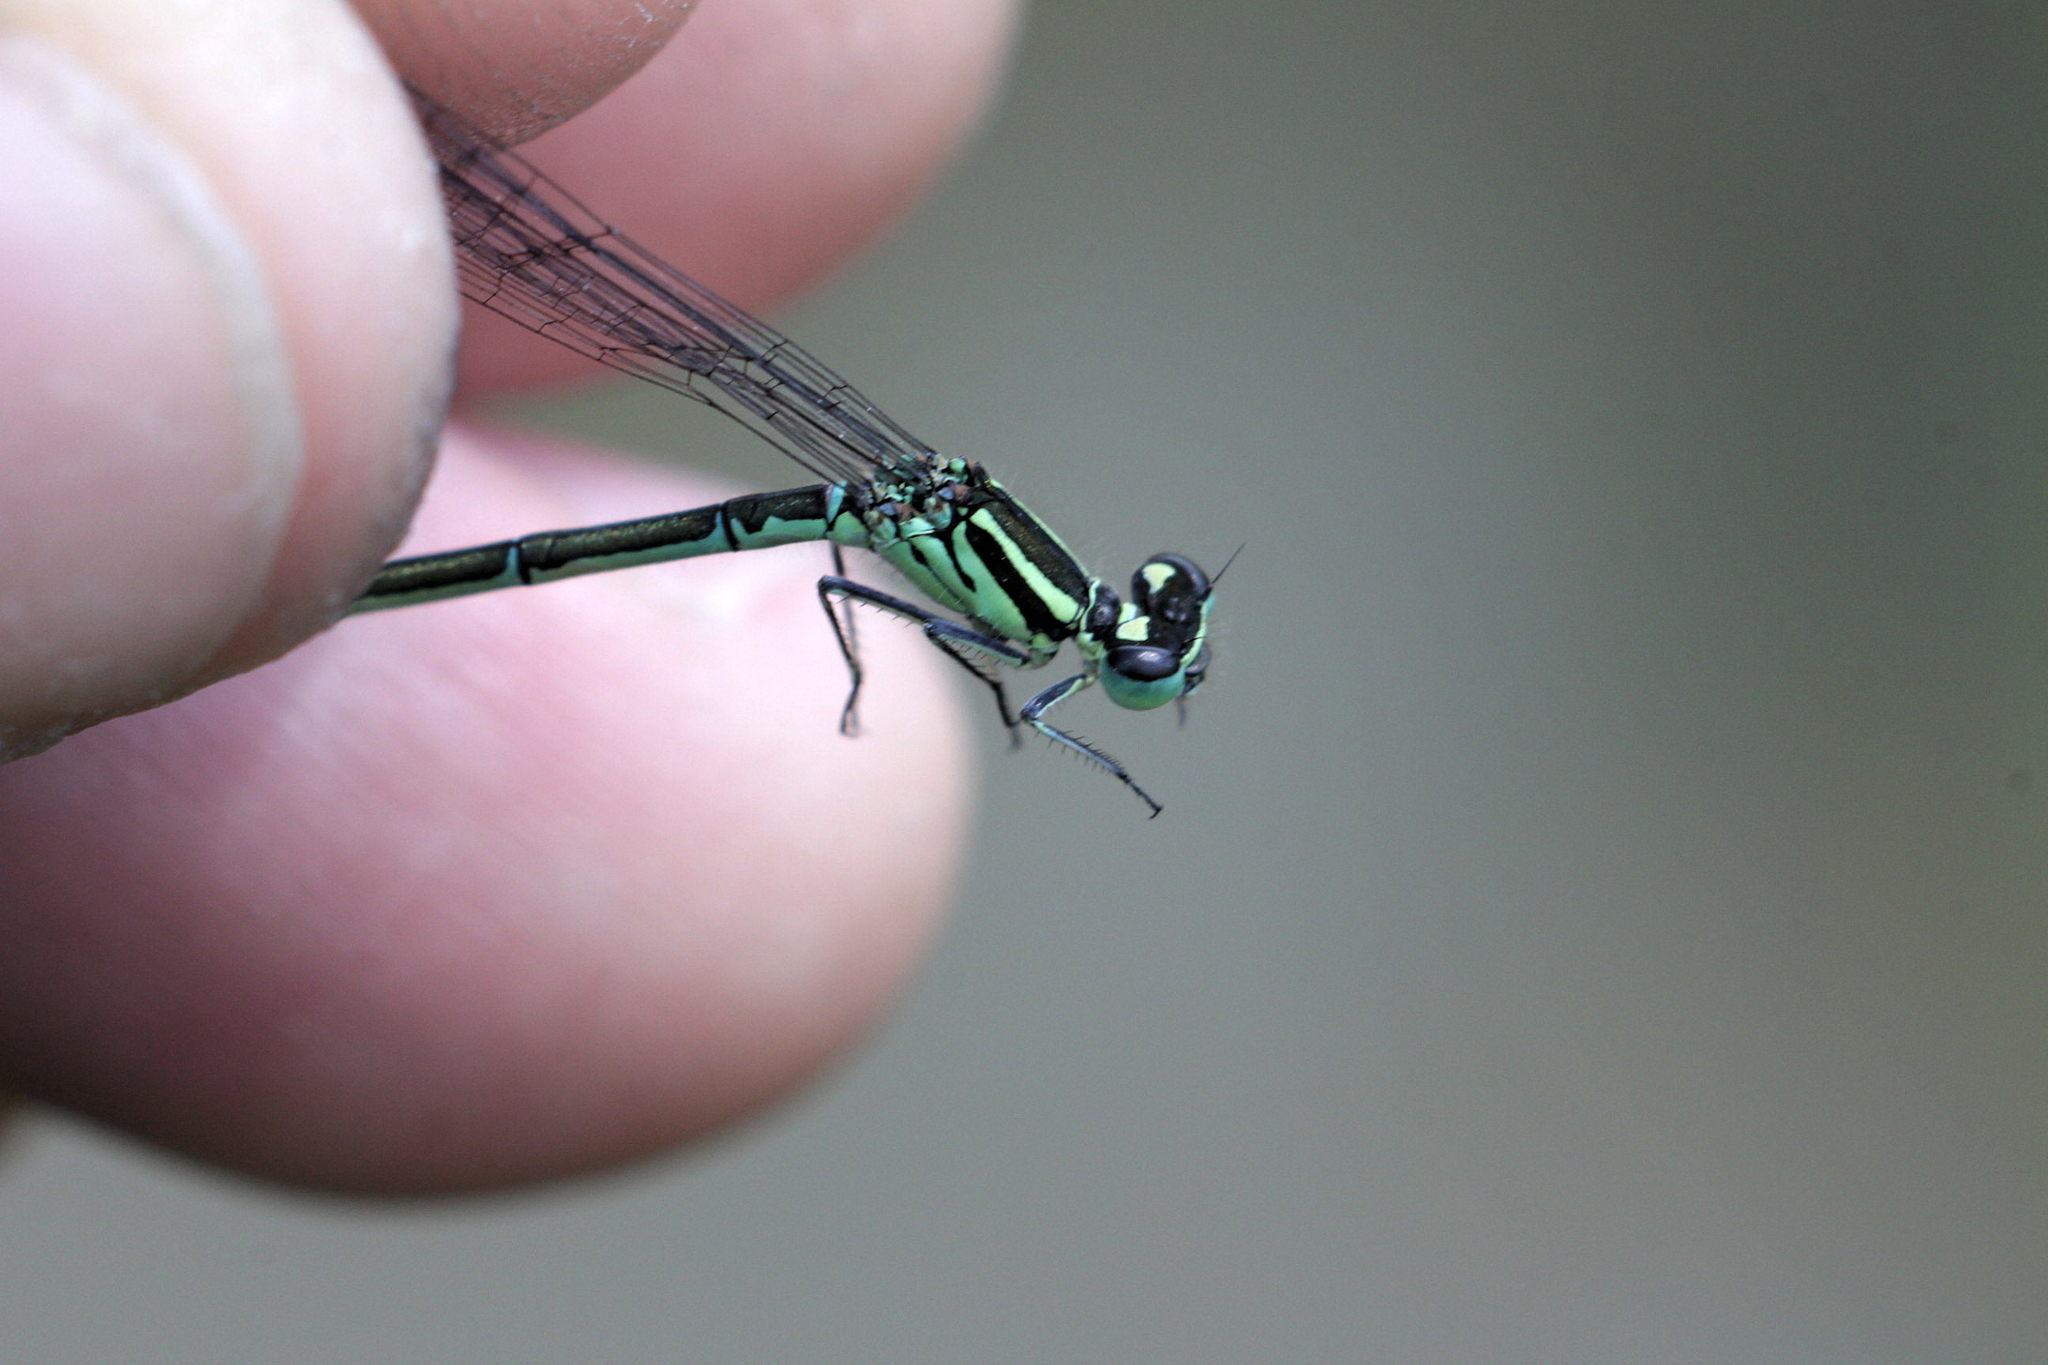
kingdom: Animalia
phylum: Arthropoda
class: Insecta
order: Odonata
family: Coenagrionidae
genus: Coenagrion
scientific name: Coenagrion puella
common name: Azure damselfly
